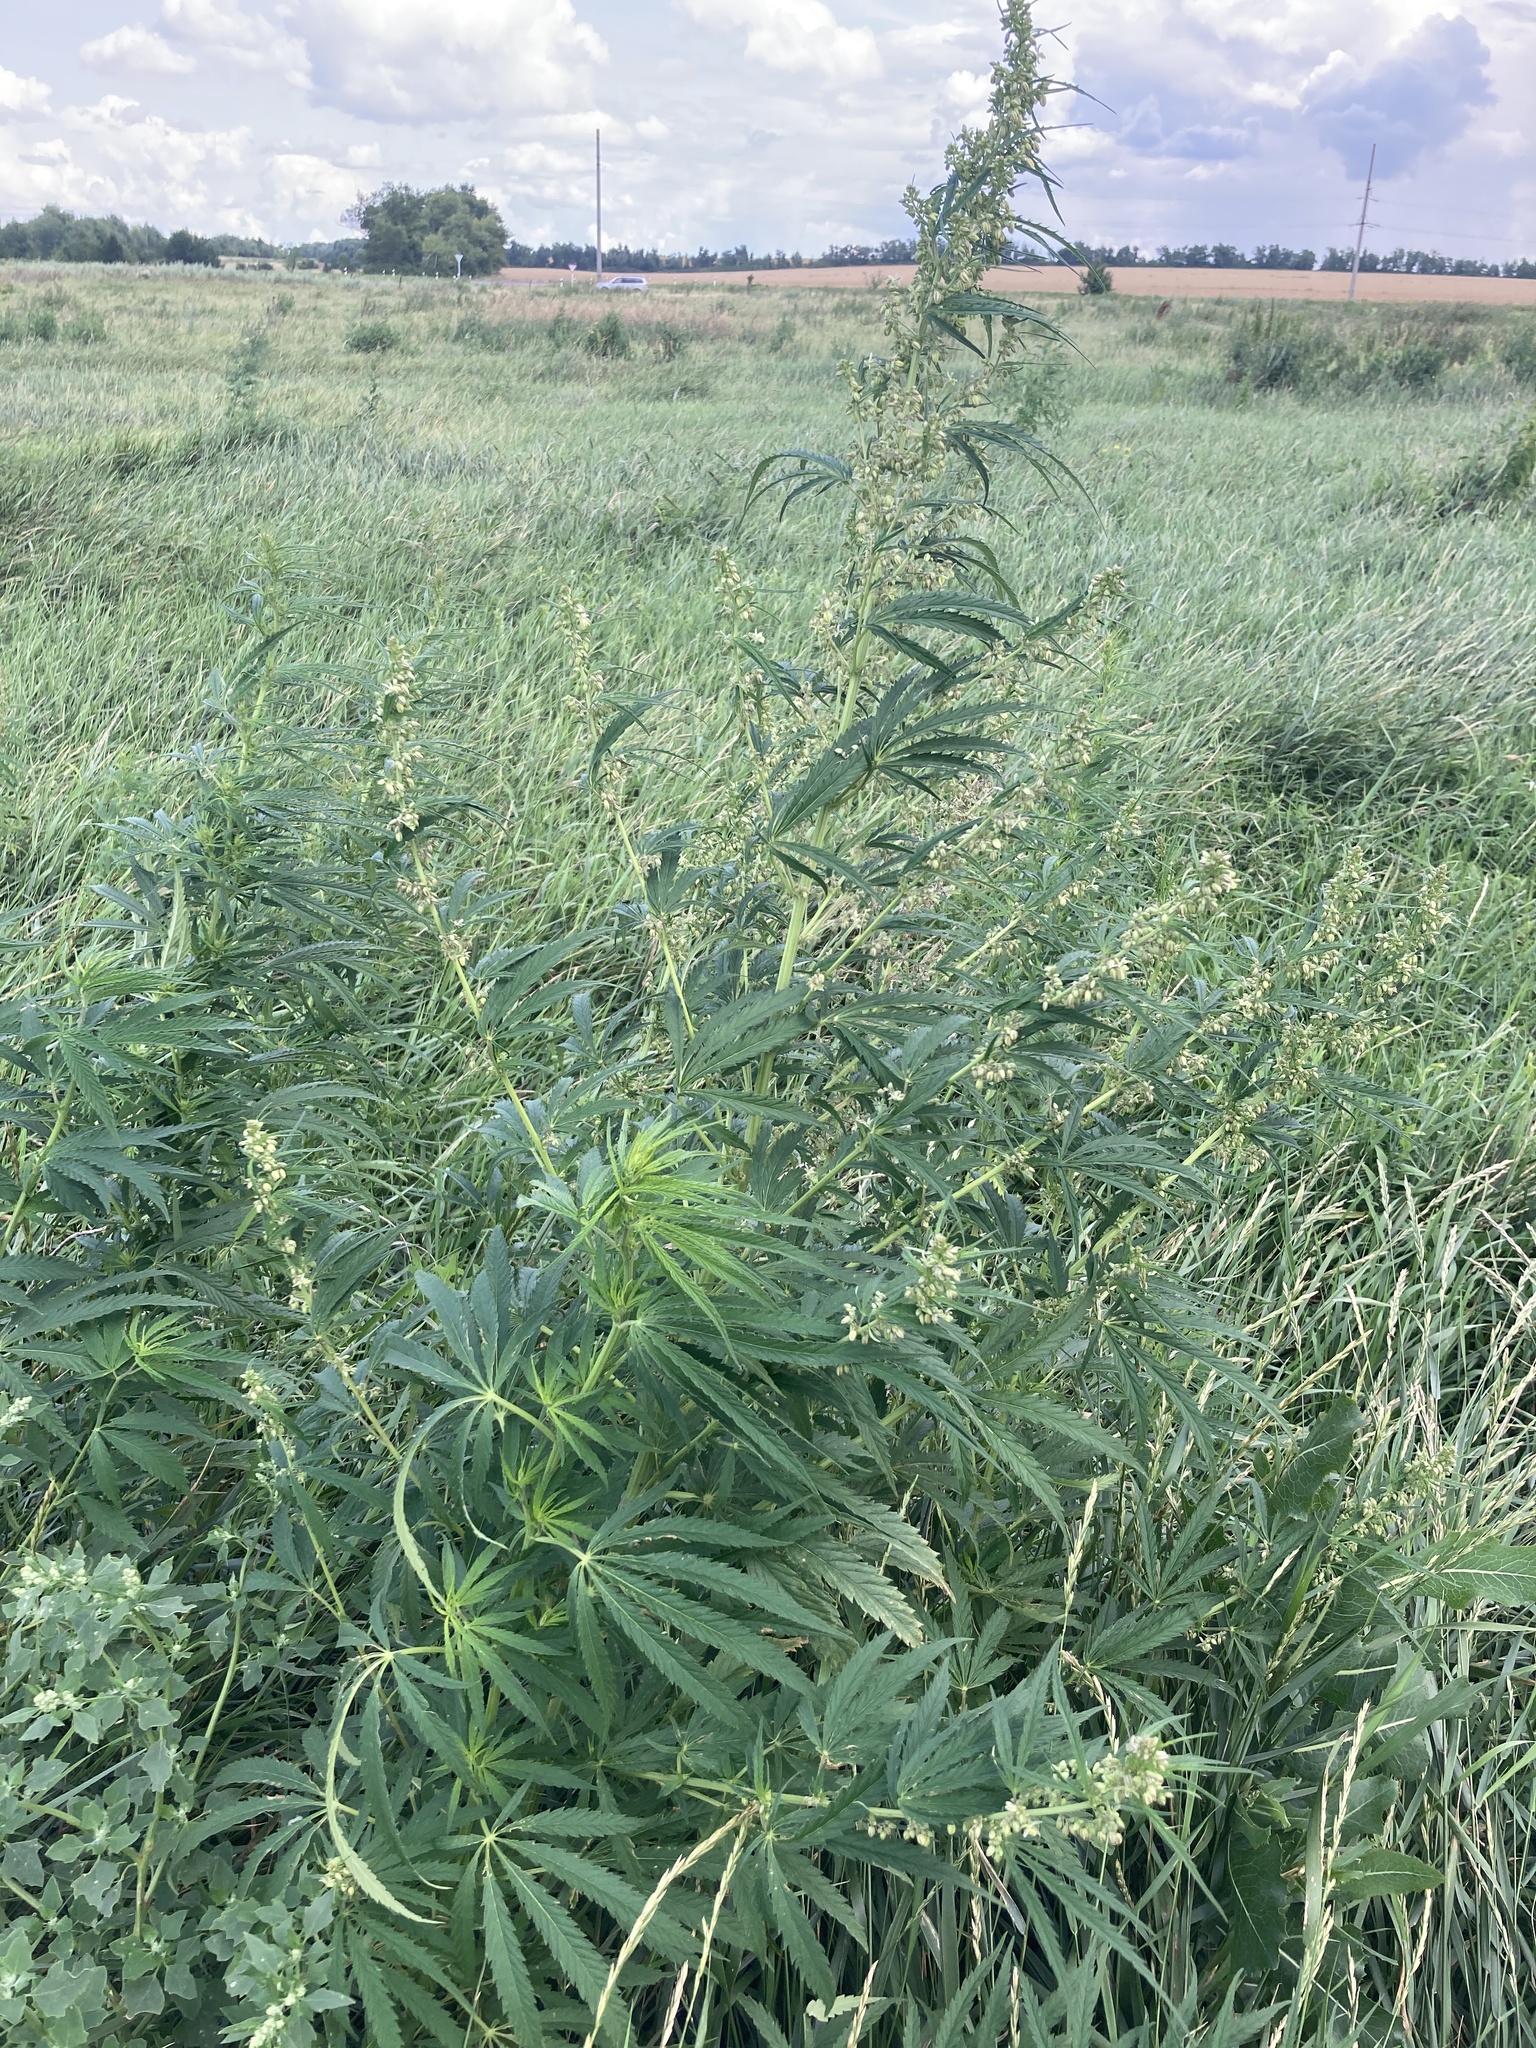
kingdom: Plantae
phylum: Tracheophyta
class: Magnoliopsida
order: Rosales
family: Cannabaceae
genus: Cannabis
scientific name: Cannabis sativa
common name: Hemp
